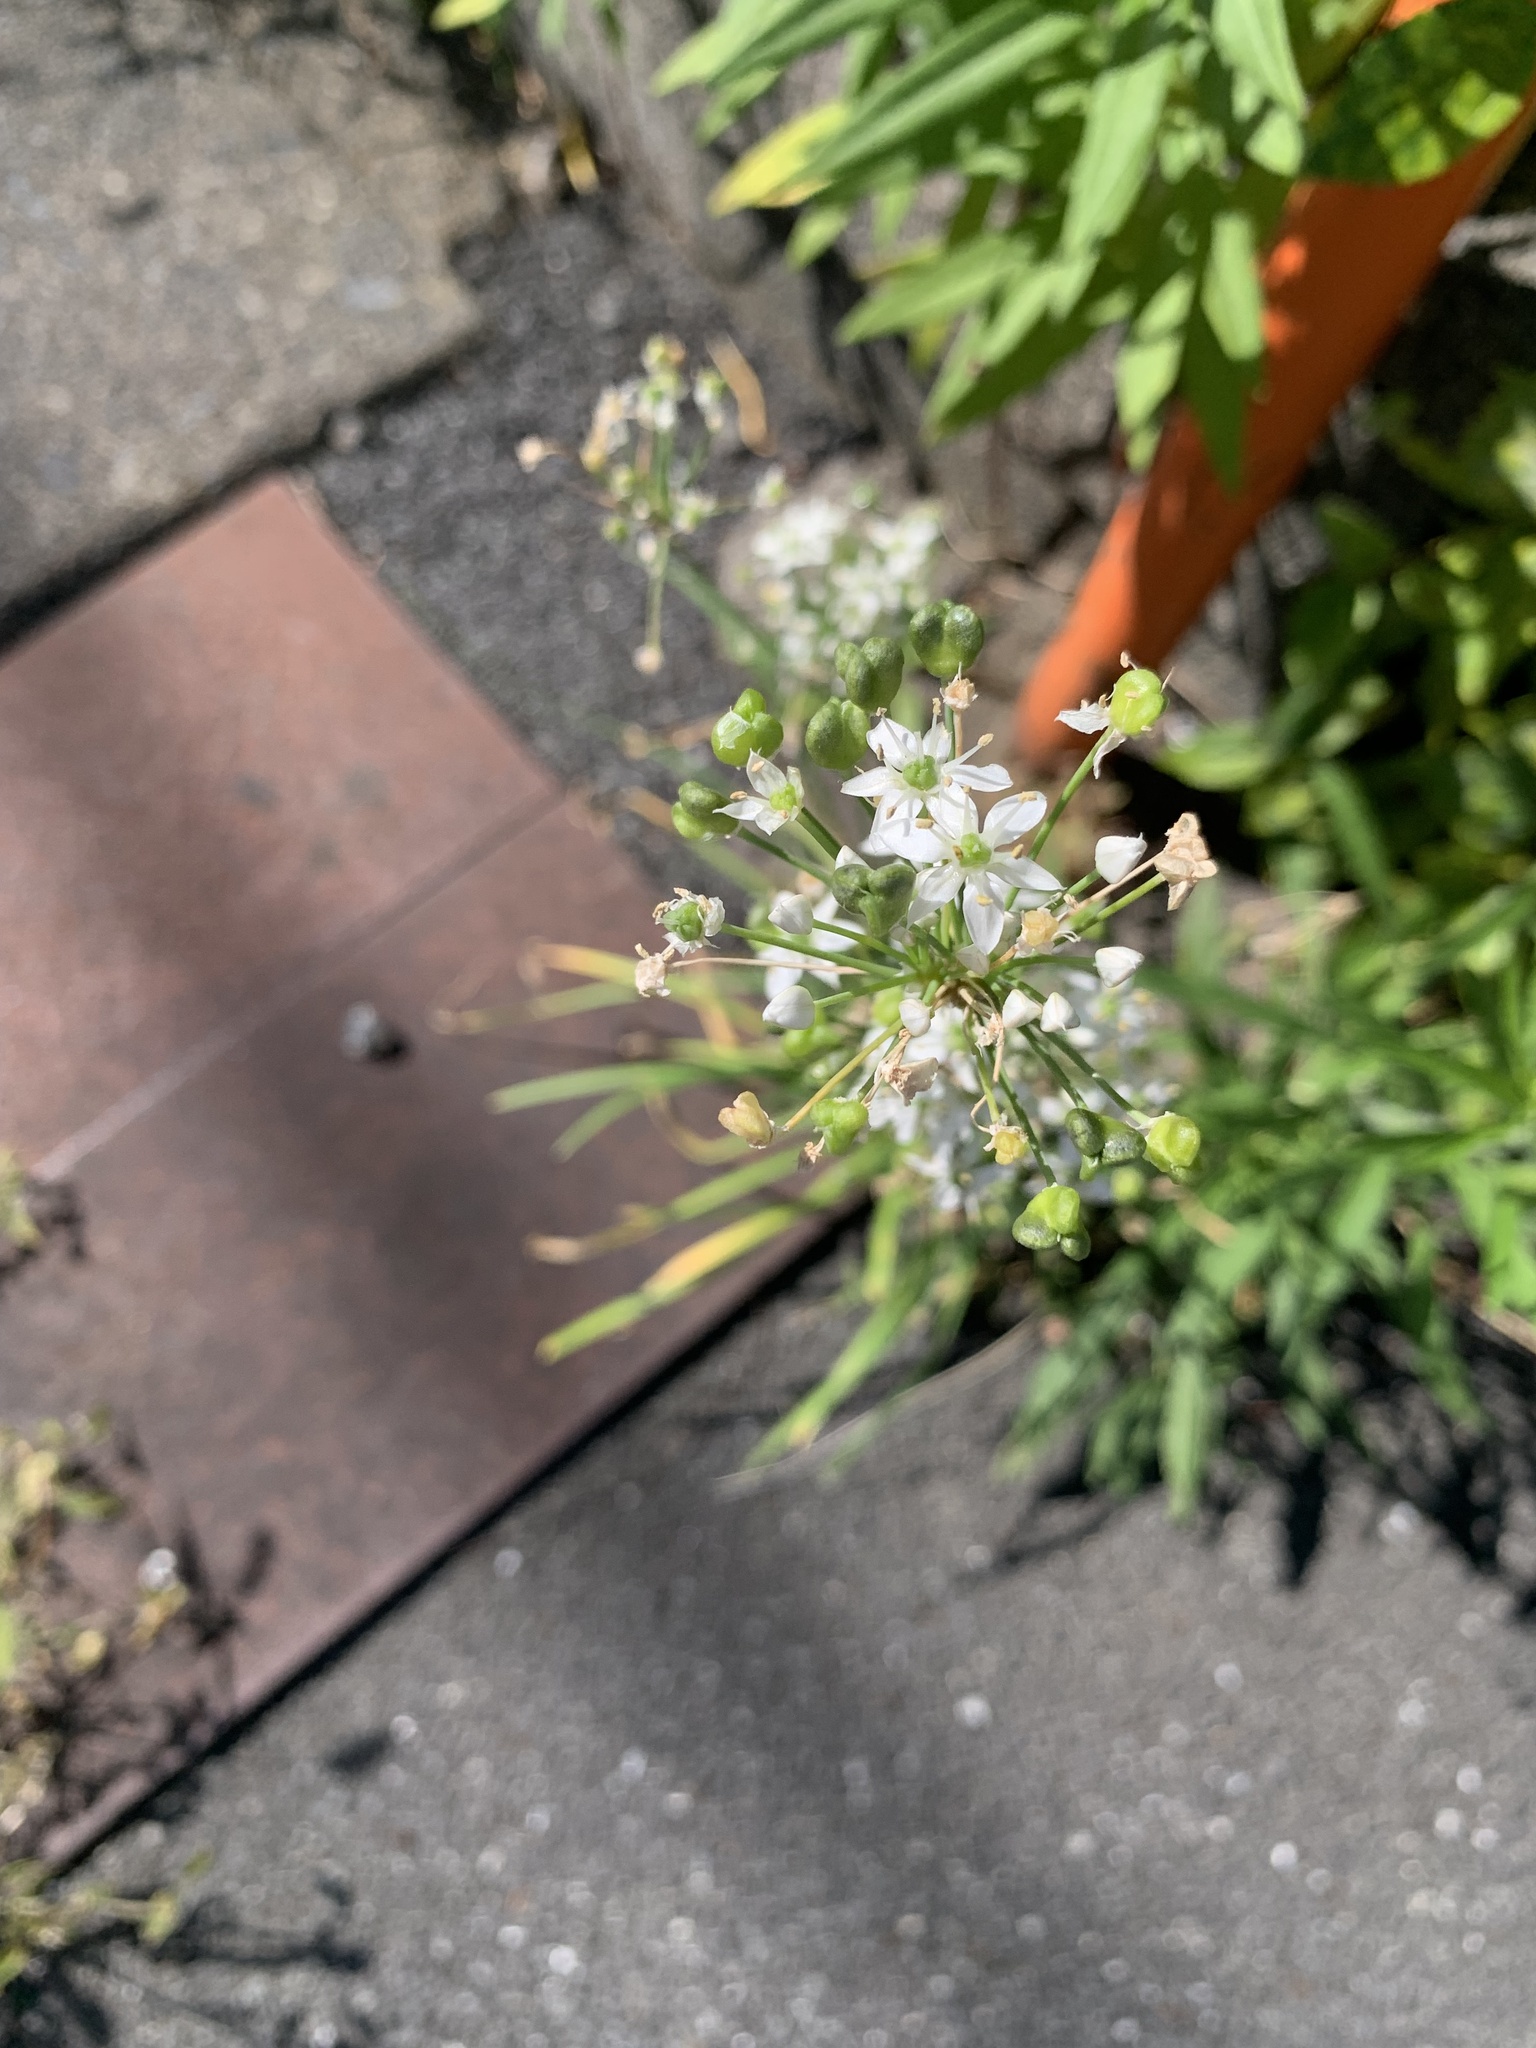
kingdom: Plantae
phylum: Tracheophyta
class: Liliopsida
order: Asparagales
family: Amaryllidaceae
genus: Allium
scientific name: Allium tuberosum
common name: Chinese chives
